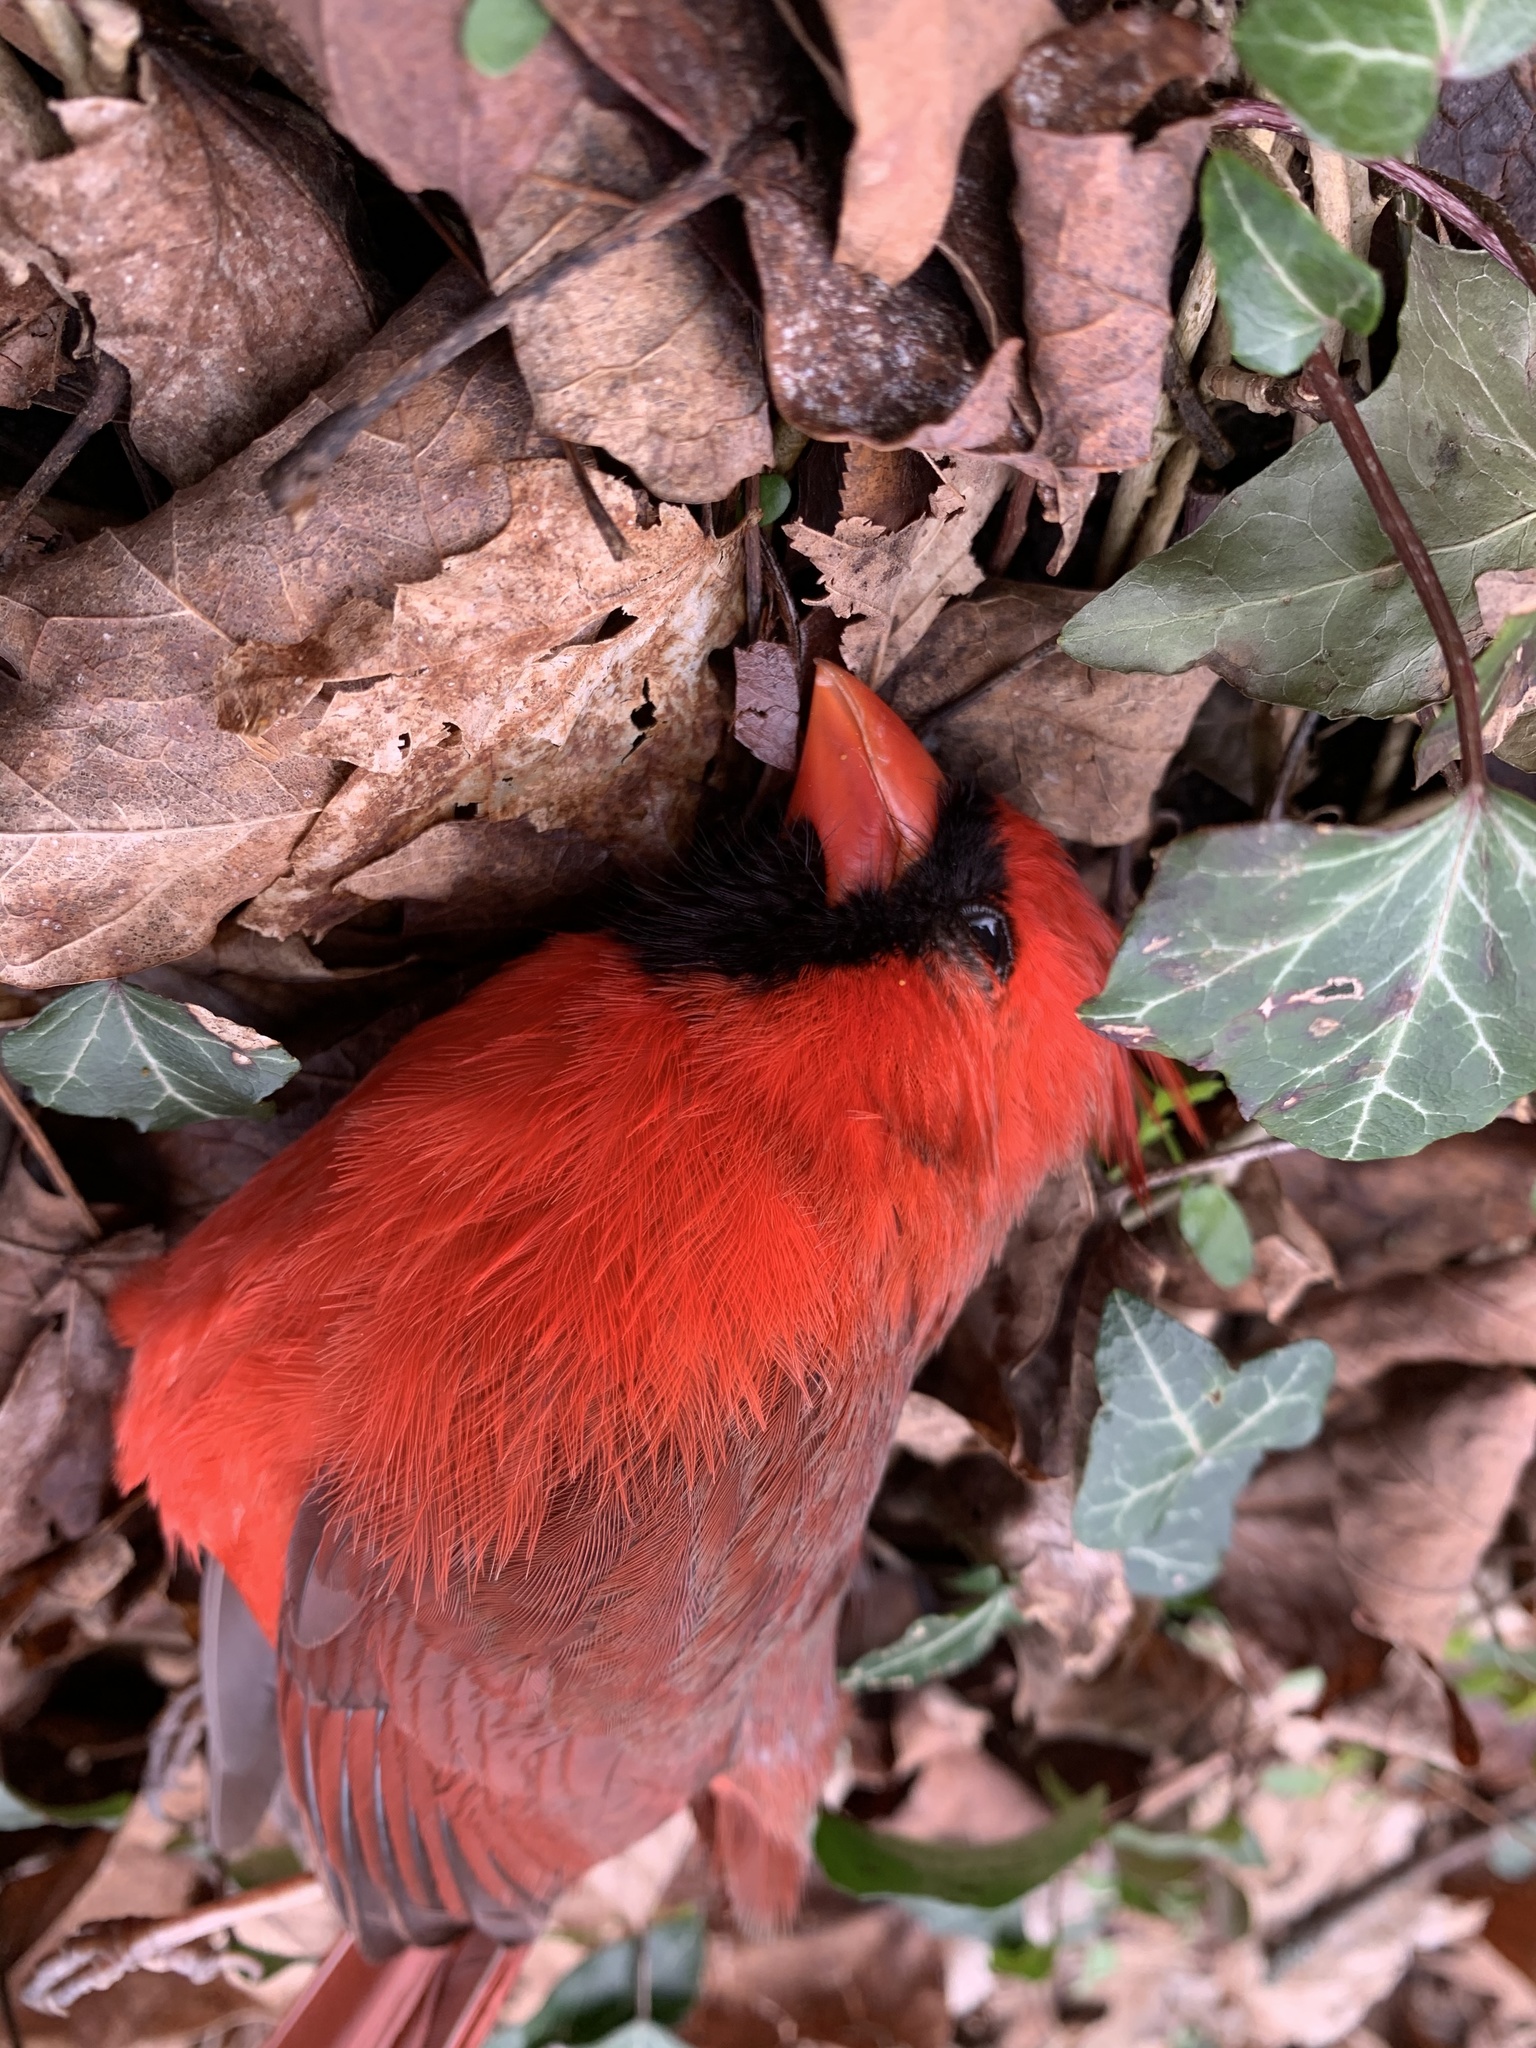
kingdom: Animalia
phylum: Chordata
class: Aves
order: Passeriformes
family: Cardinalidae
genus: Cardinalis
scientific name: Cardinalis cardinalis
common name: Northern cardinal
